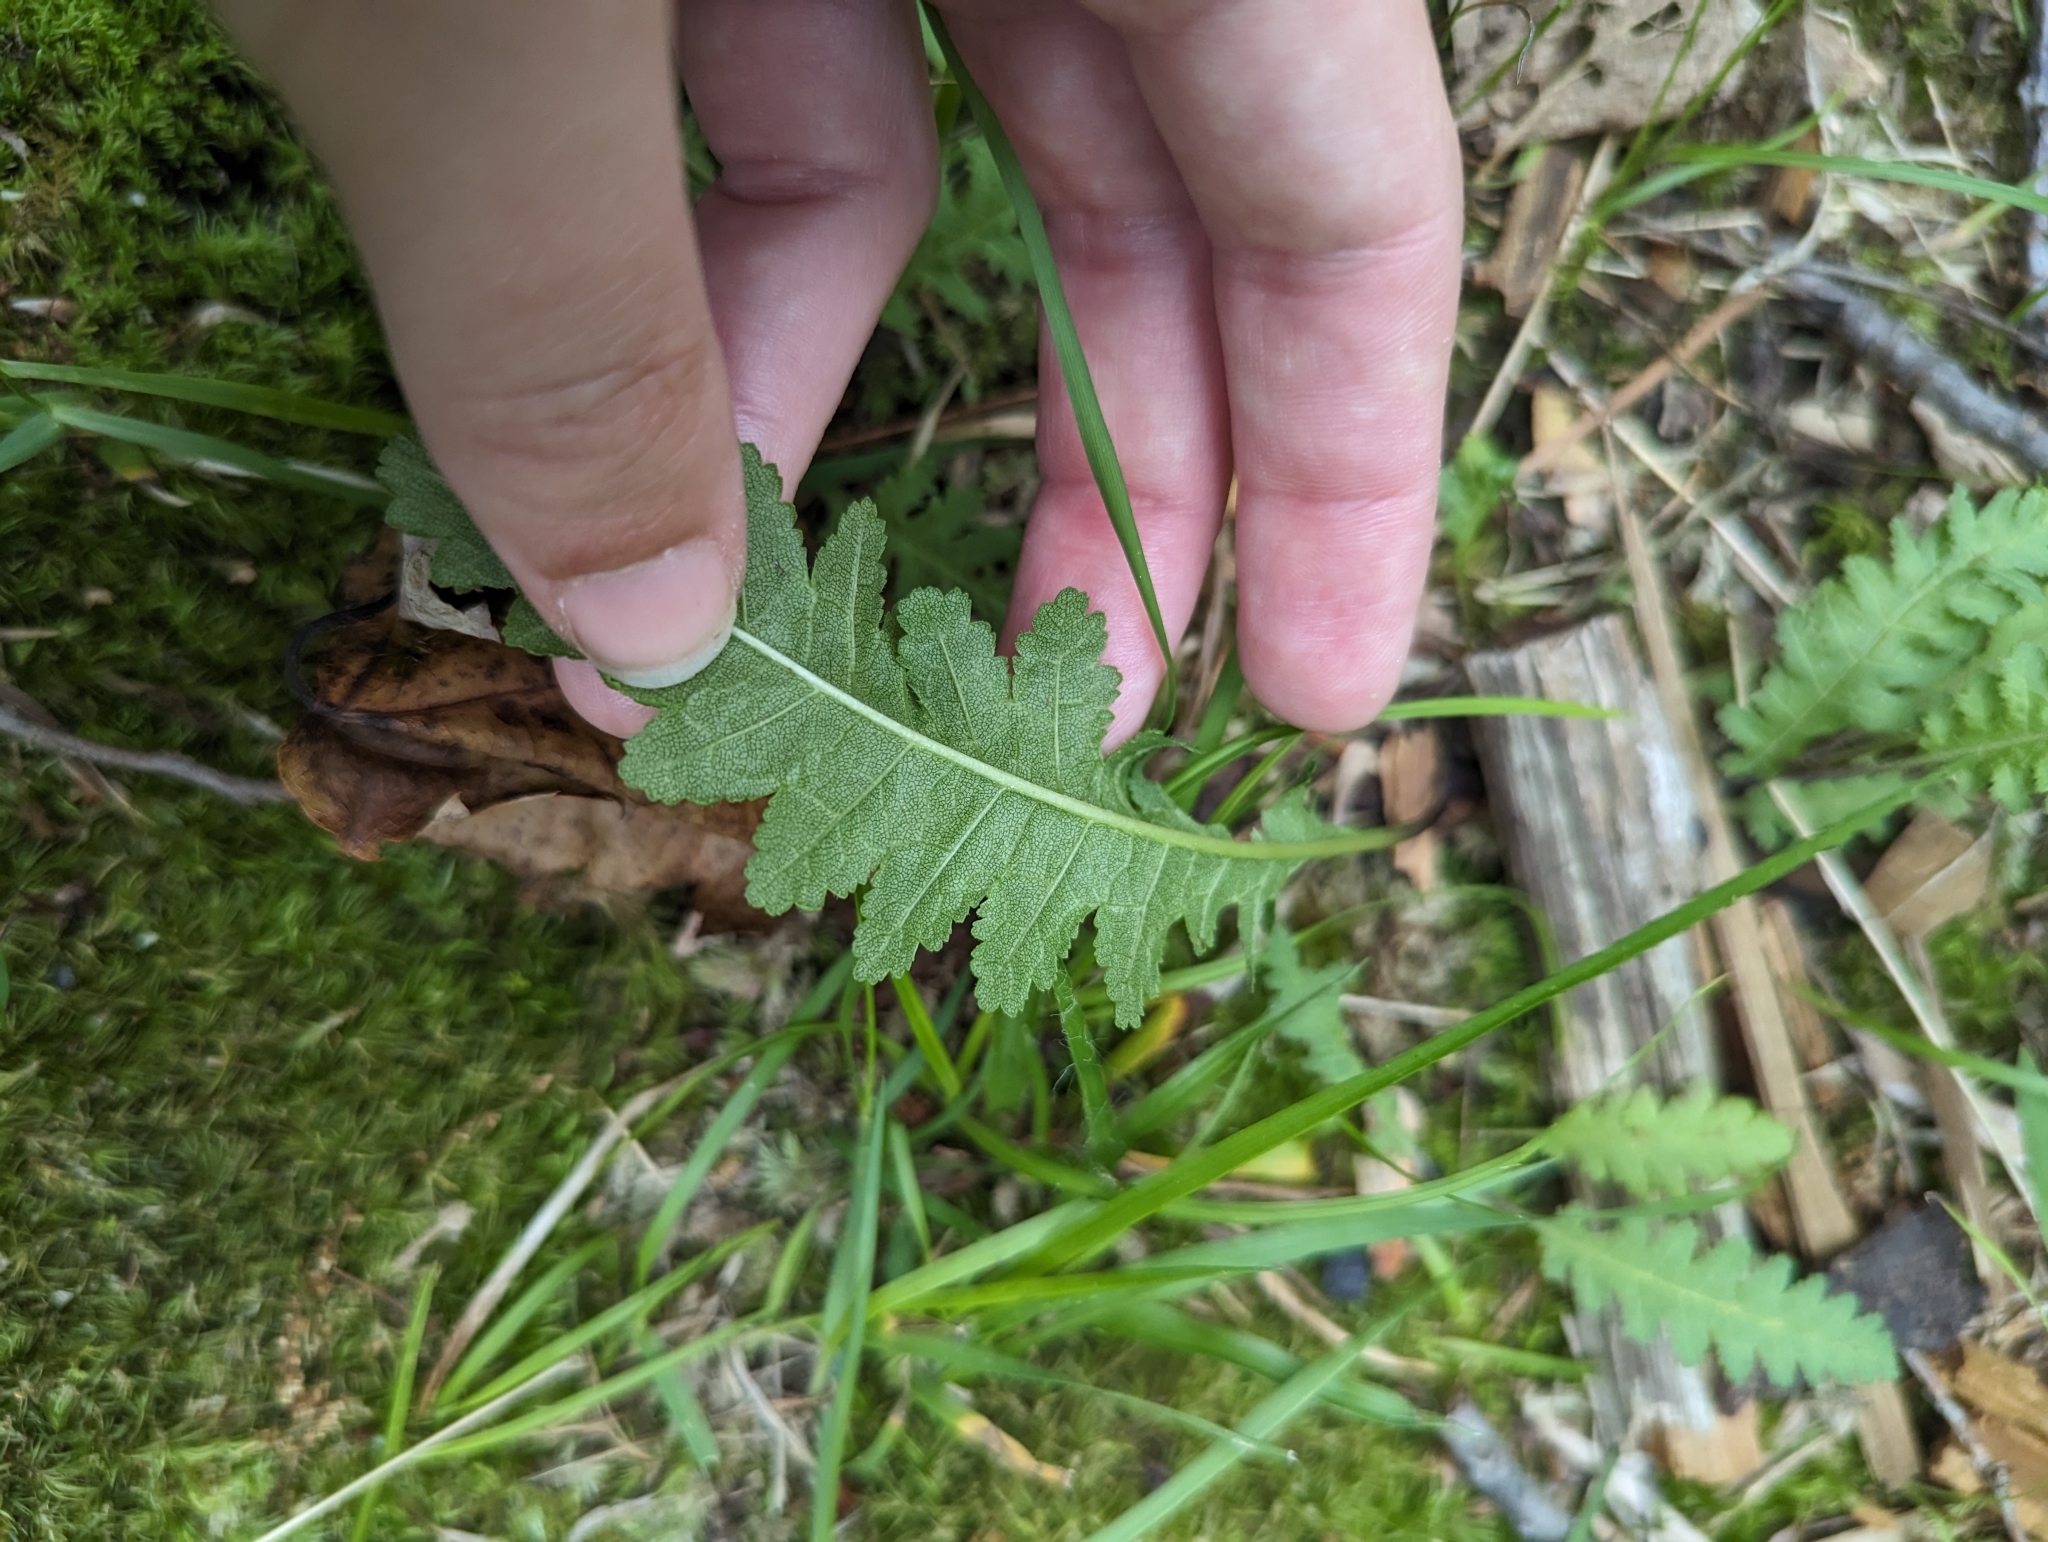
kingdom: Plantae
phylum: Tracheophyta
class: Magnoliopsida
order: Lamiales
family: Orobanchaceae
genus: Pedicularis
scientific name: Pedicularis canadensis
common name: Early lousewort
